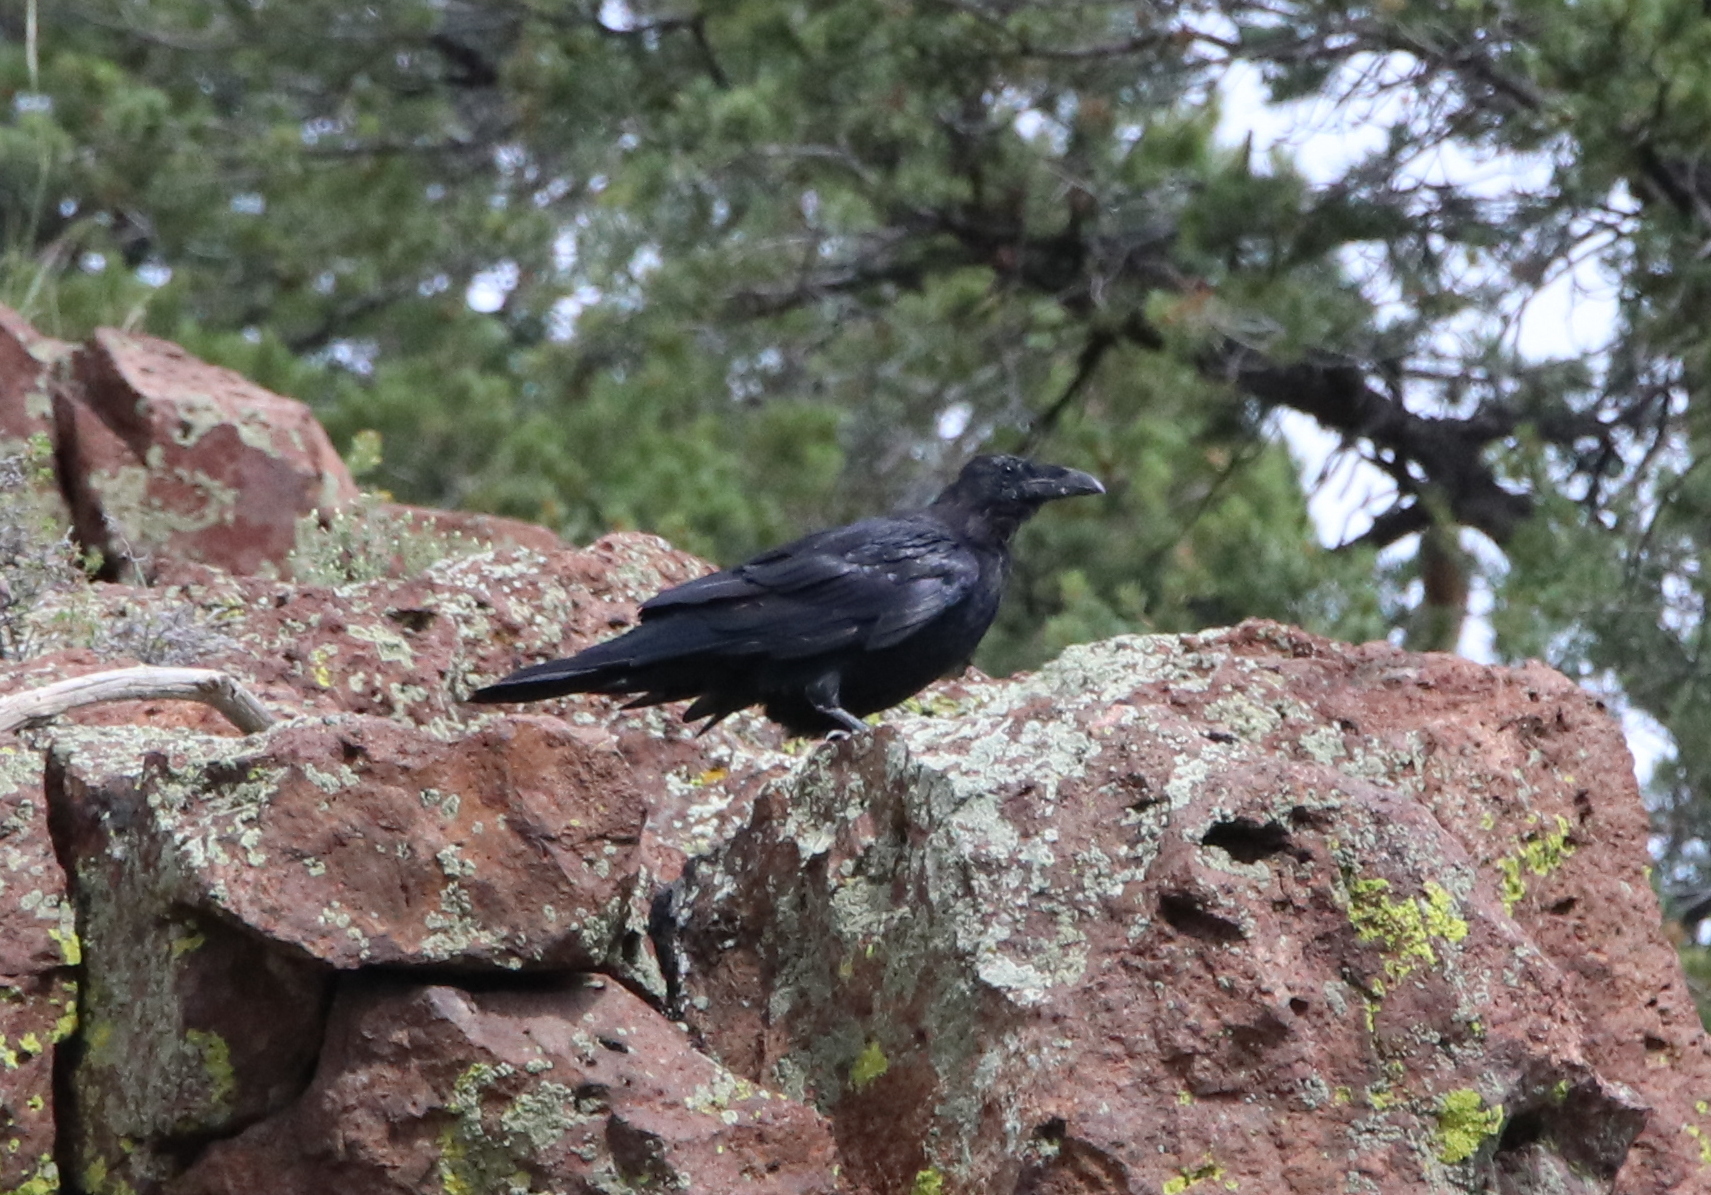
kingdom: Animalia
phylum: Chordata
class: Aves
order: Passeriformes
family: Corvidae
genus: Corvus
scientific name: Corvus corax
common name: Common raven
